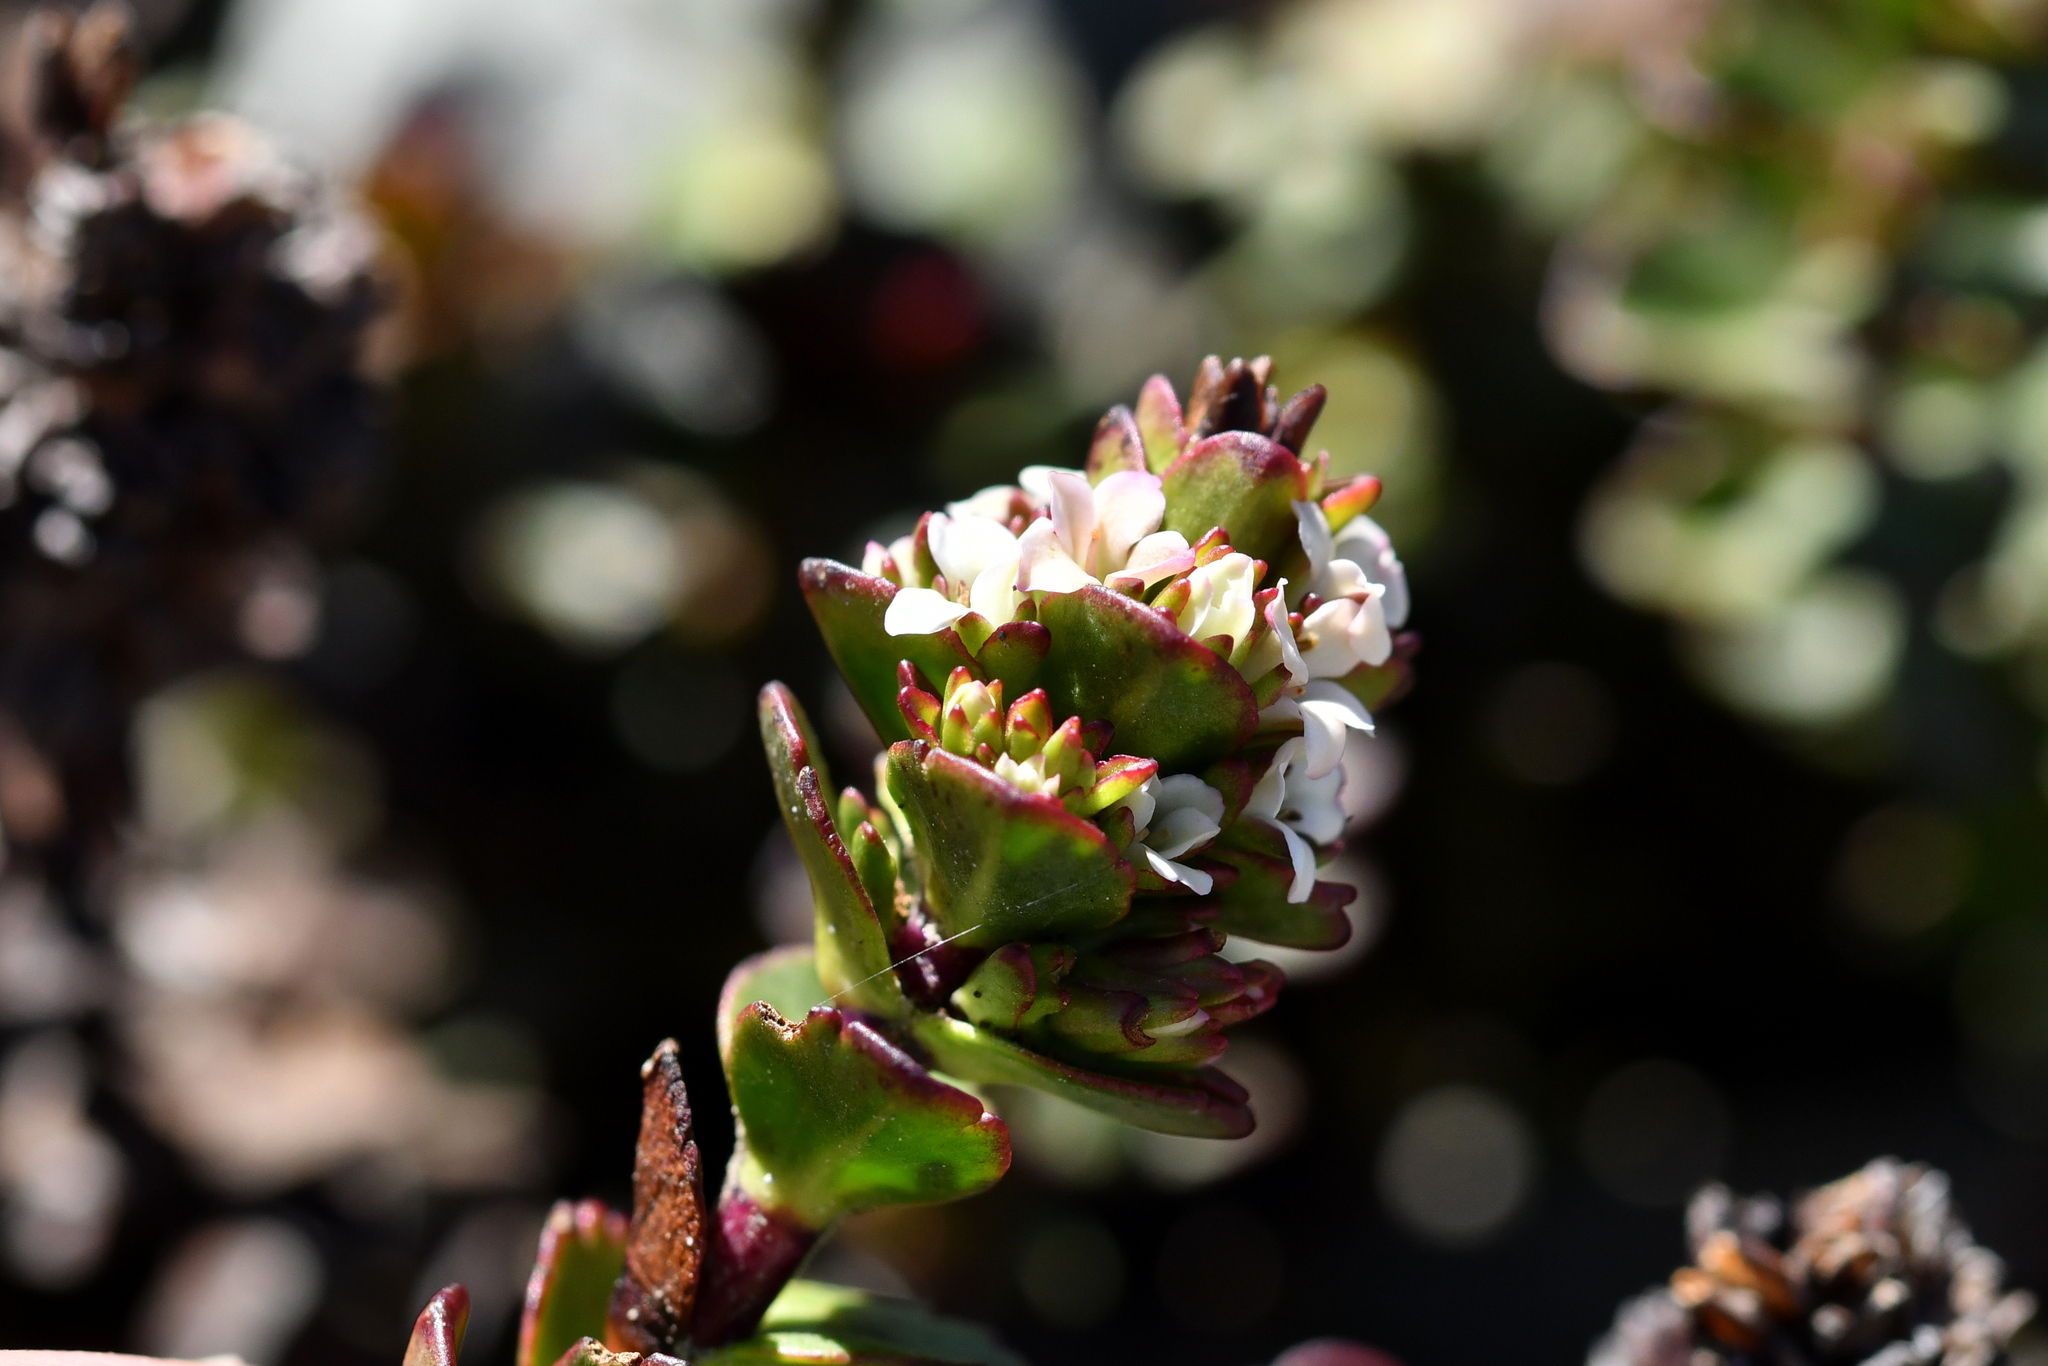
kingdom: Plantae
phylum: Tracheophyta
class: Magnoliopsida
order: Lamiales
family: Plantaginaceae
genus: Veronica
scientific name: Veronica haastii
